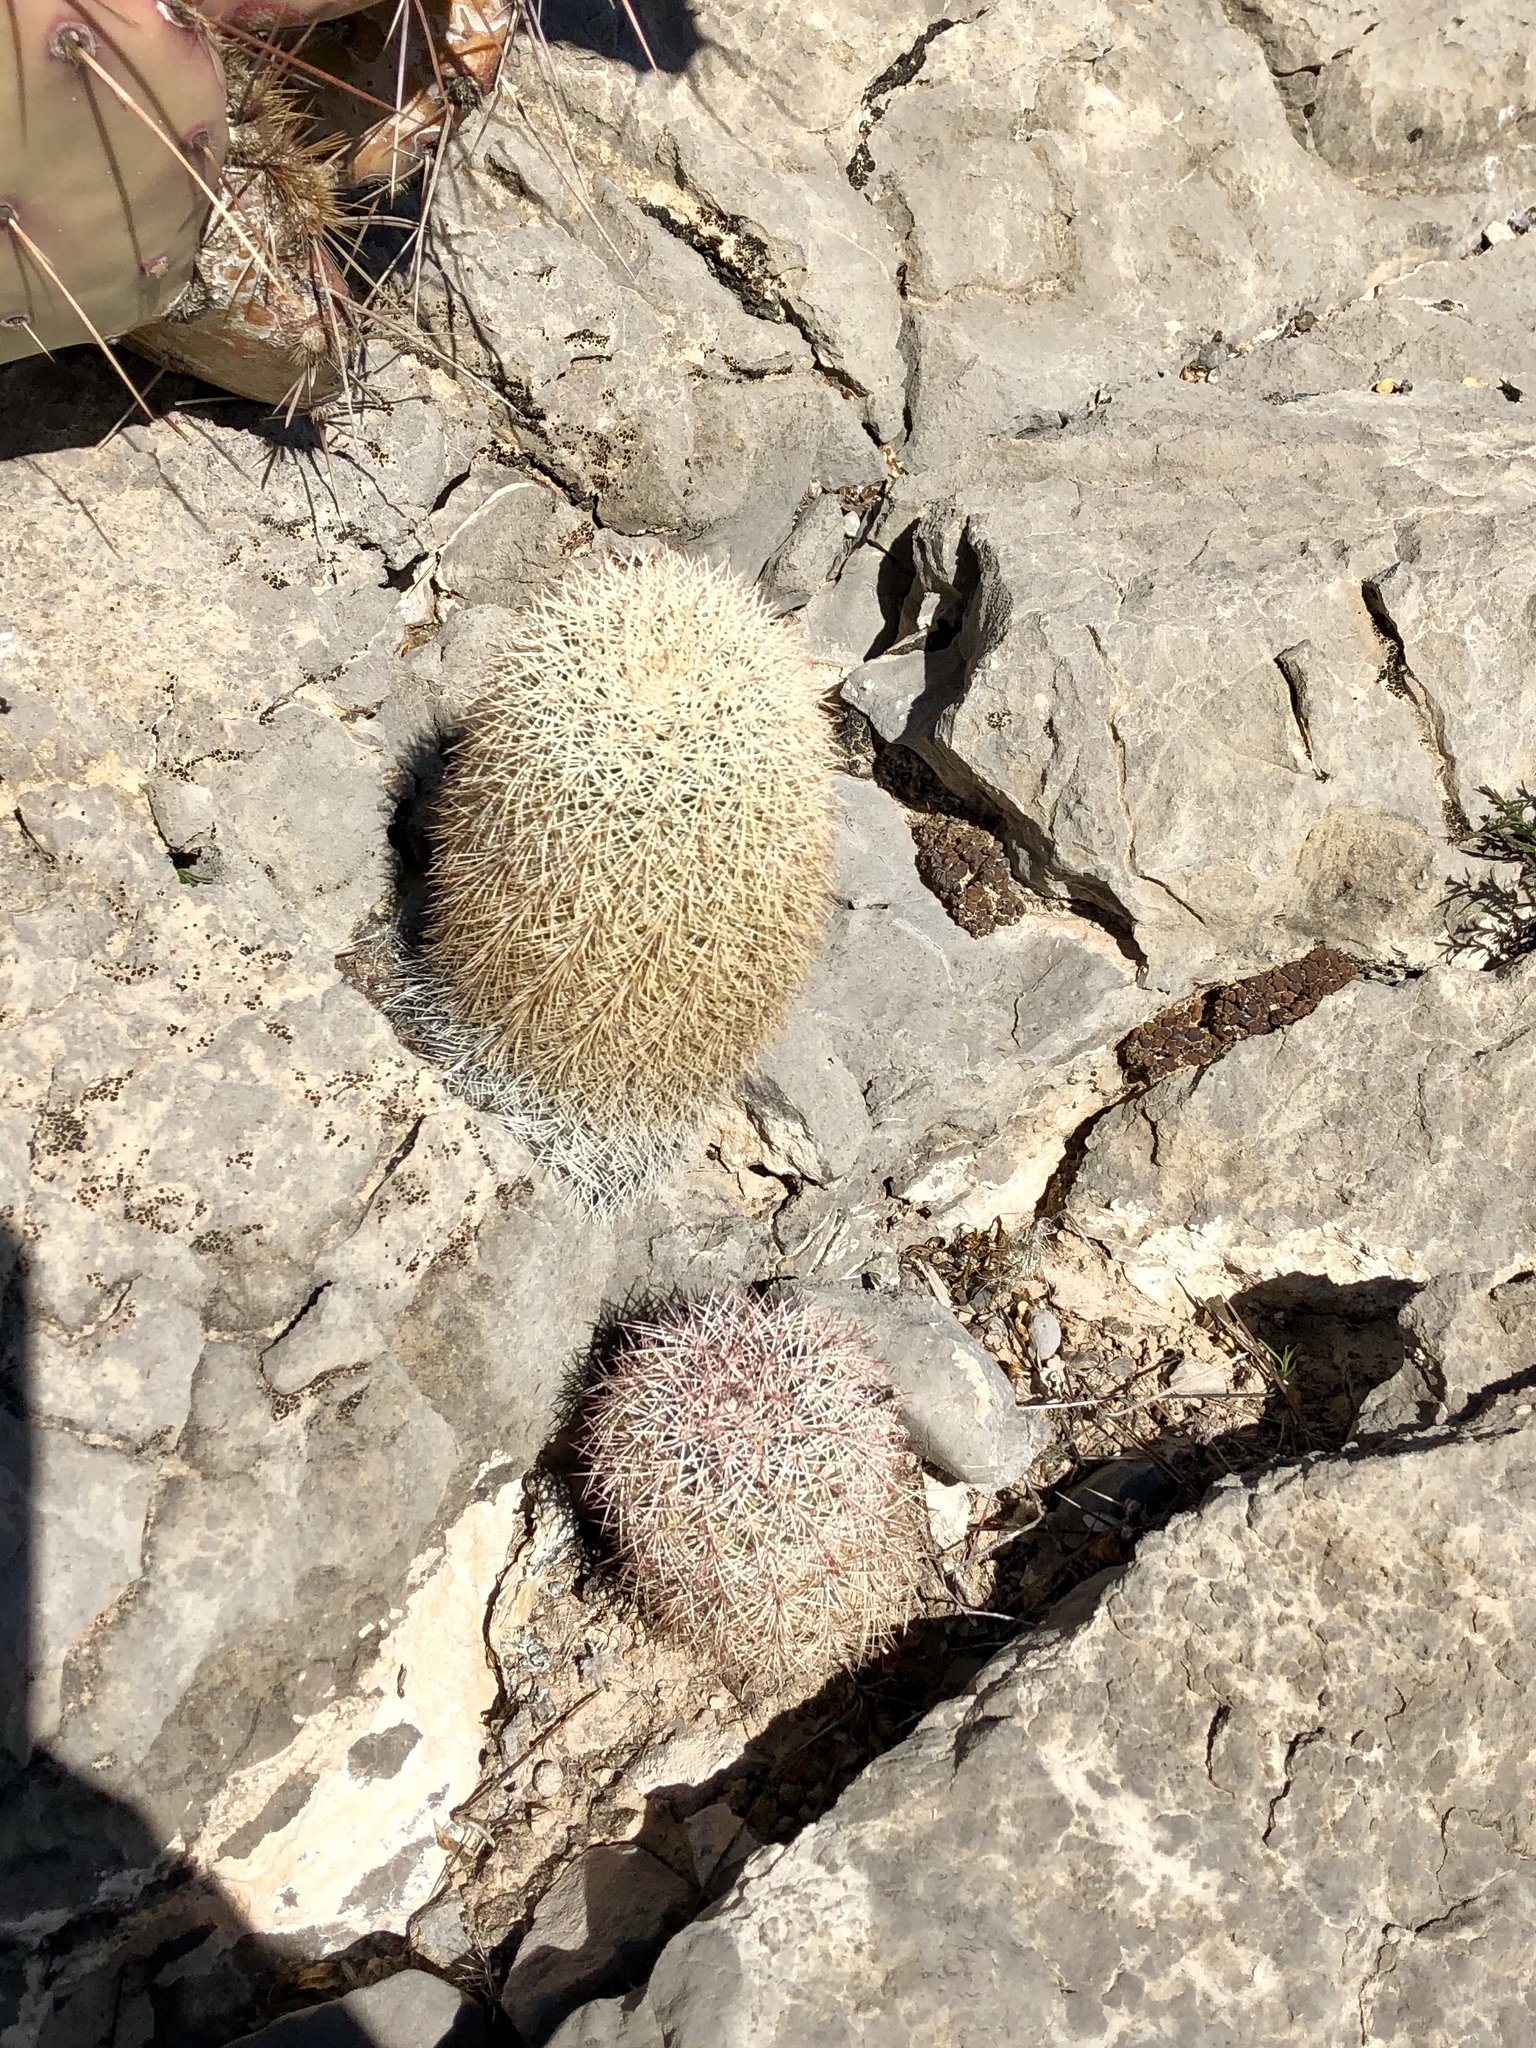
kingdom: Plantae
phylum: Tracheophyta
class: Magnoliopsida
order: Caryophyllales
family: Cactaceae
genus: Echinocereus
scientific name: Echinocereus dasyacanthus
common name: Spiny hedgehog cactus
